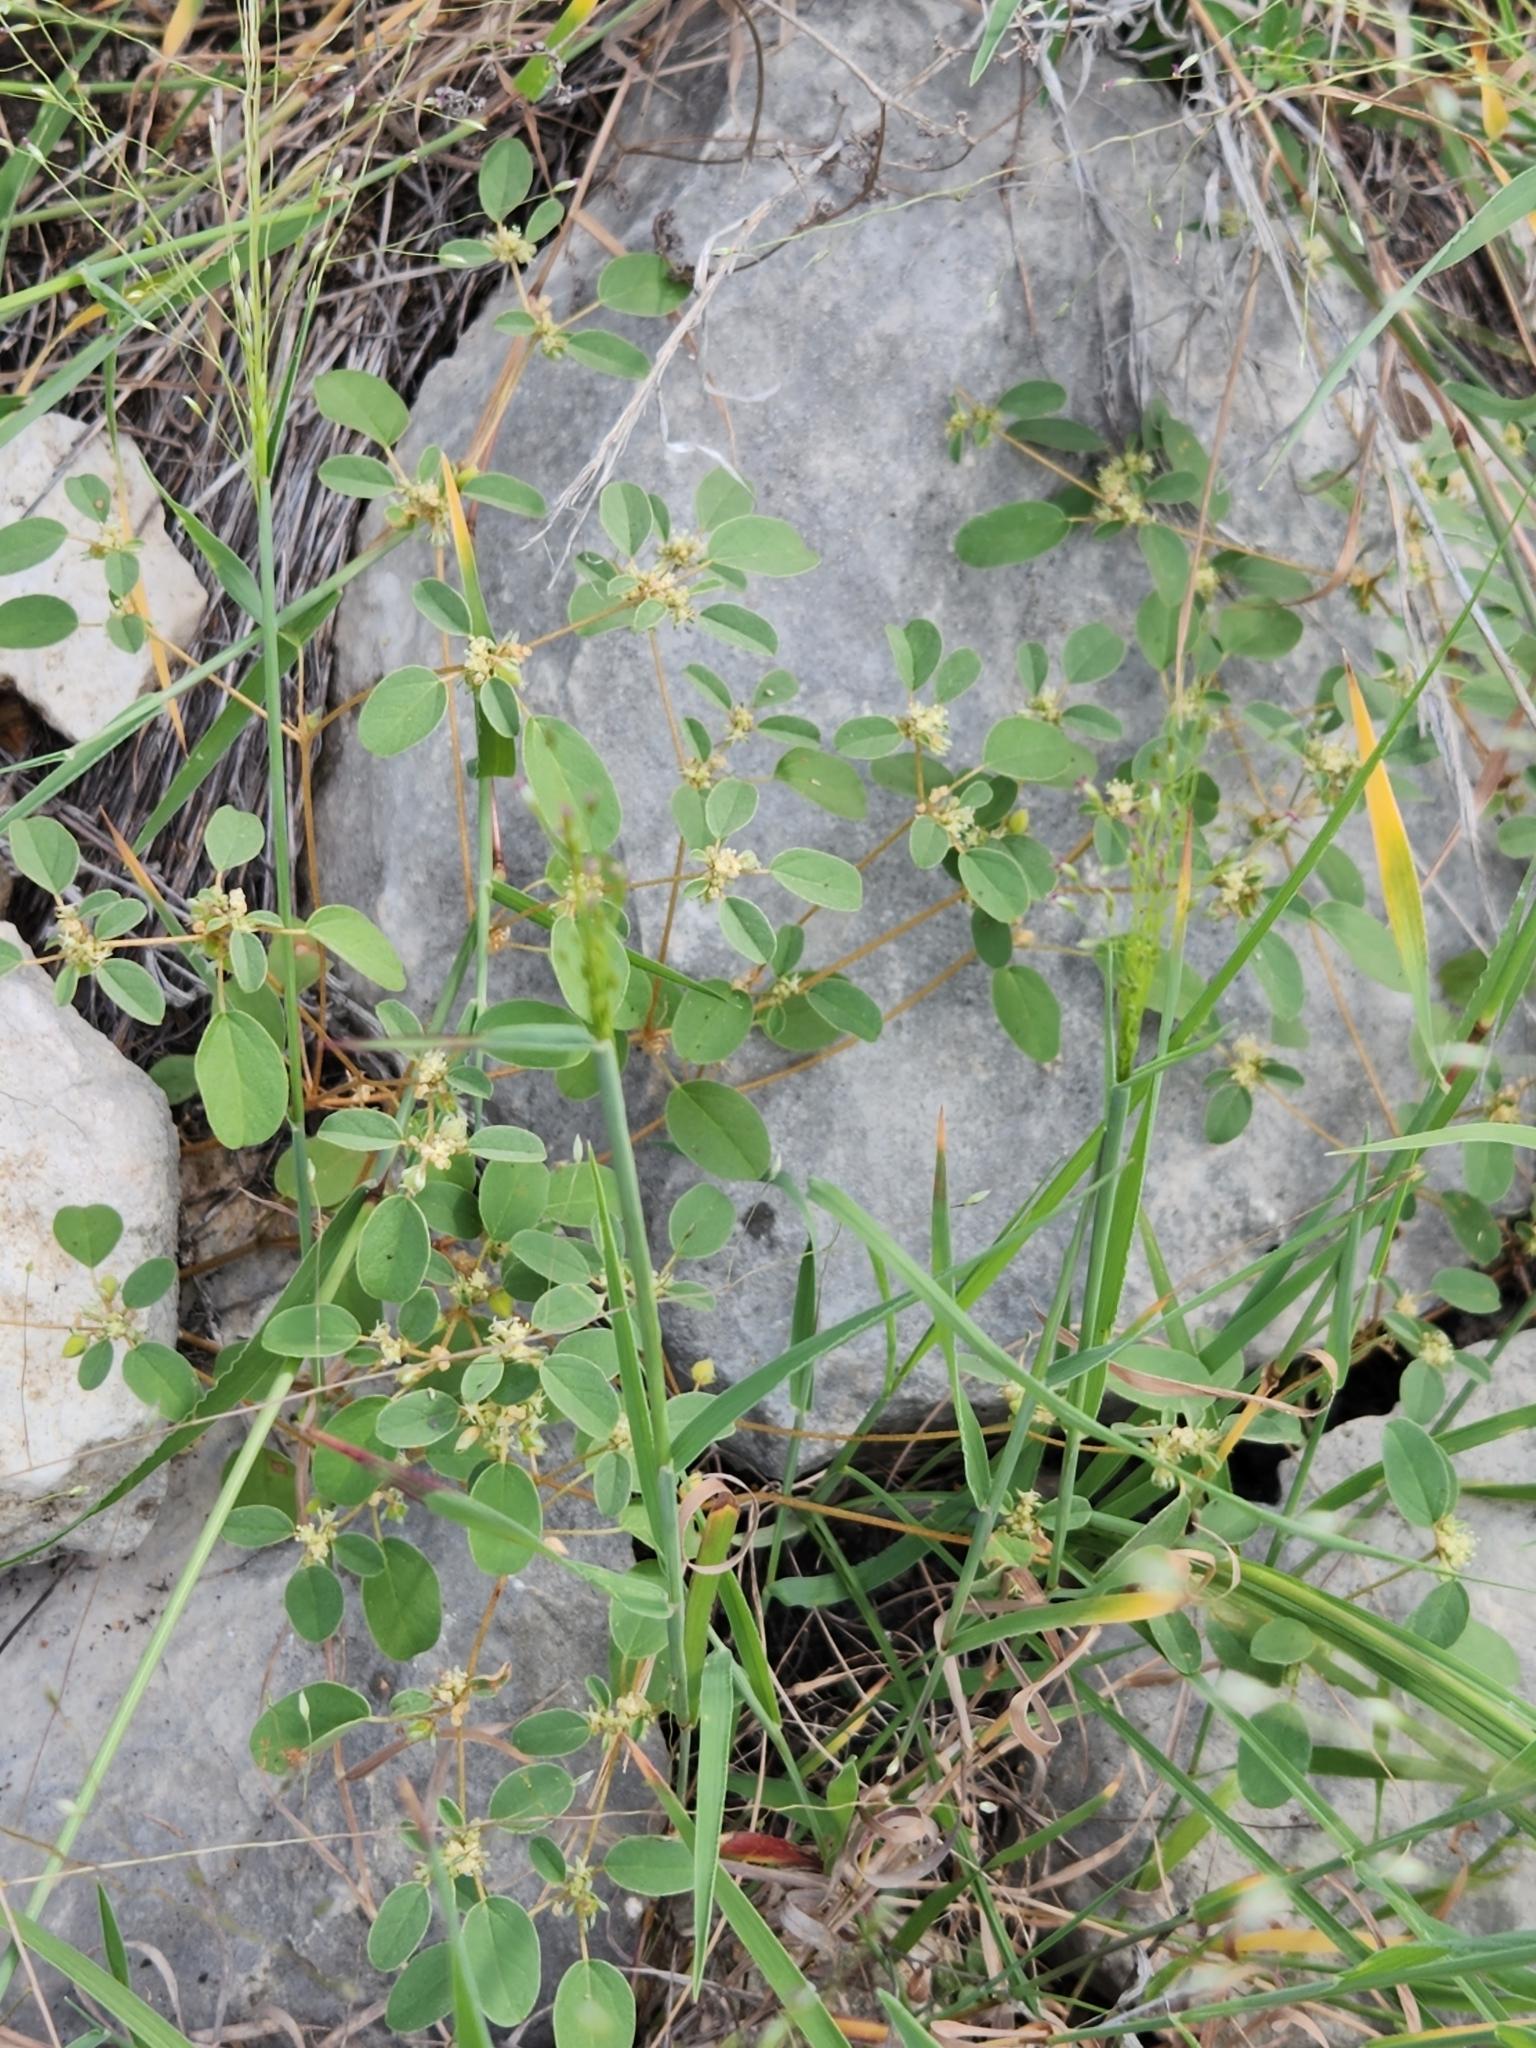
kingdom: Plantae
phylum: Tracheophyta
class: Magnoliopsida
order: Malpighiales
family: Euphorbiaceae
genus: Croton
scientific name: Croton monanthogynus
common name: One-seed croton
